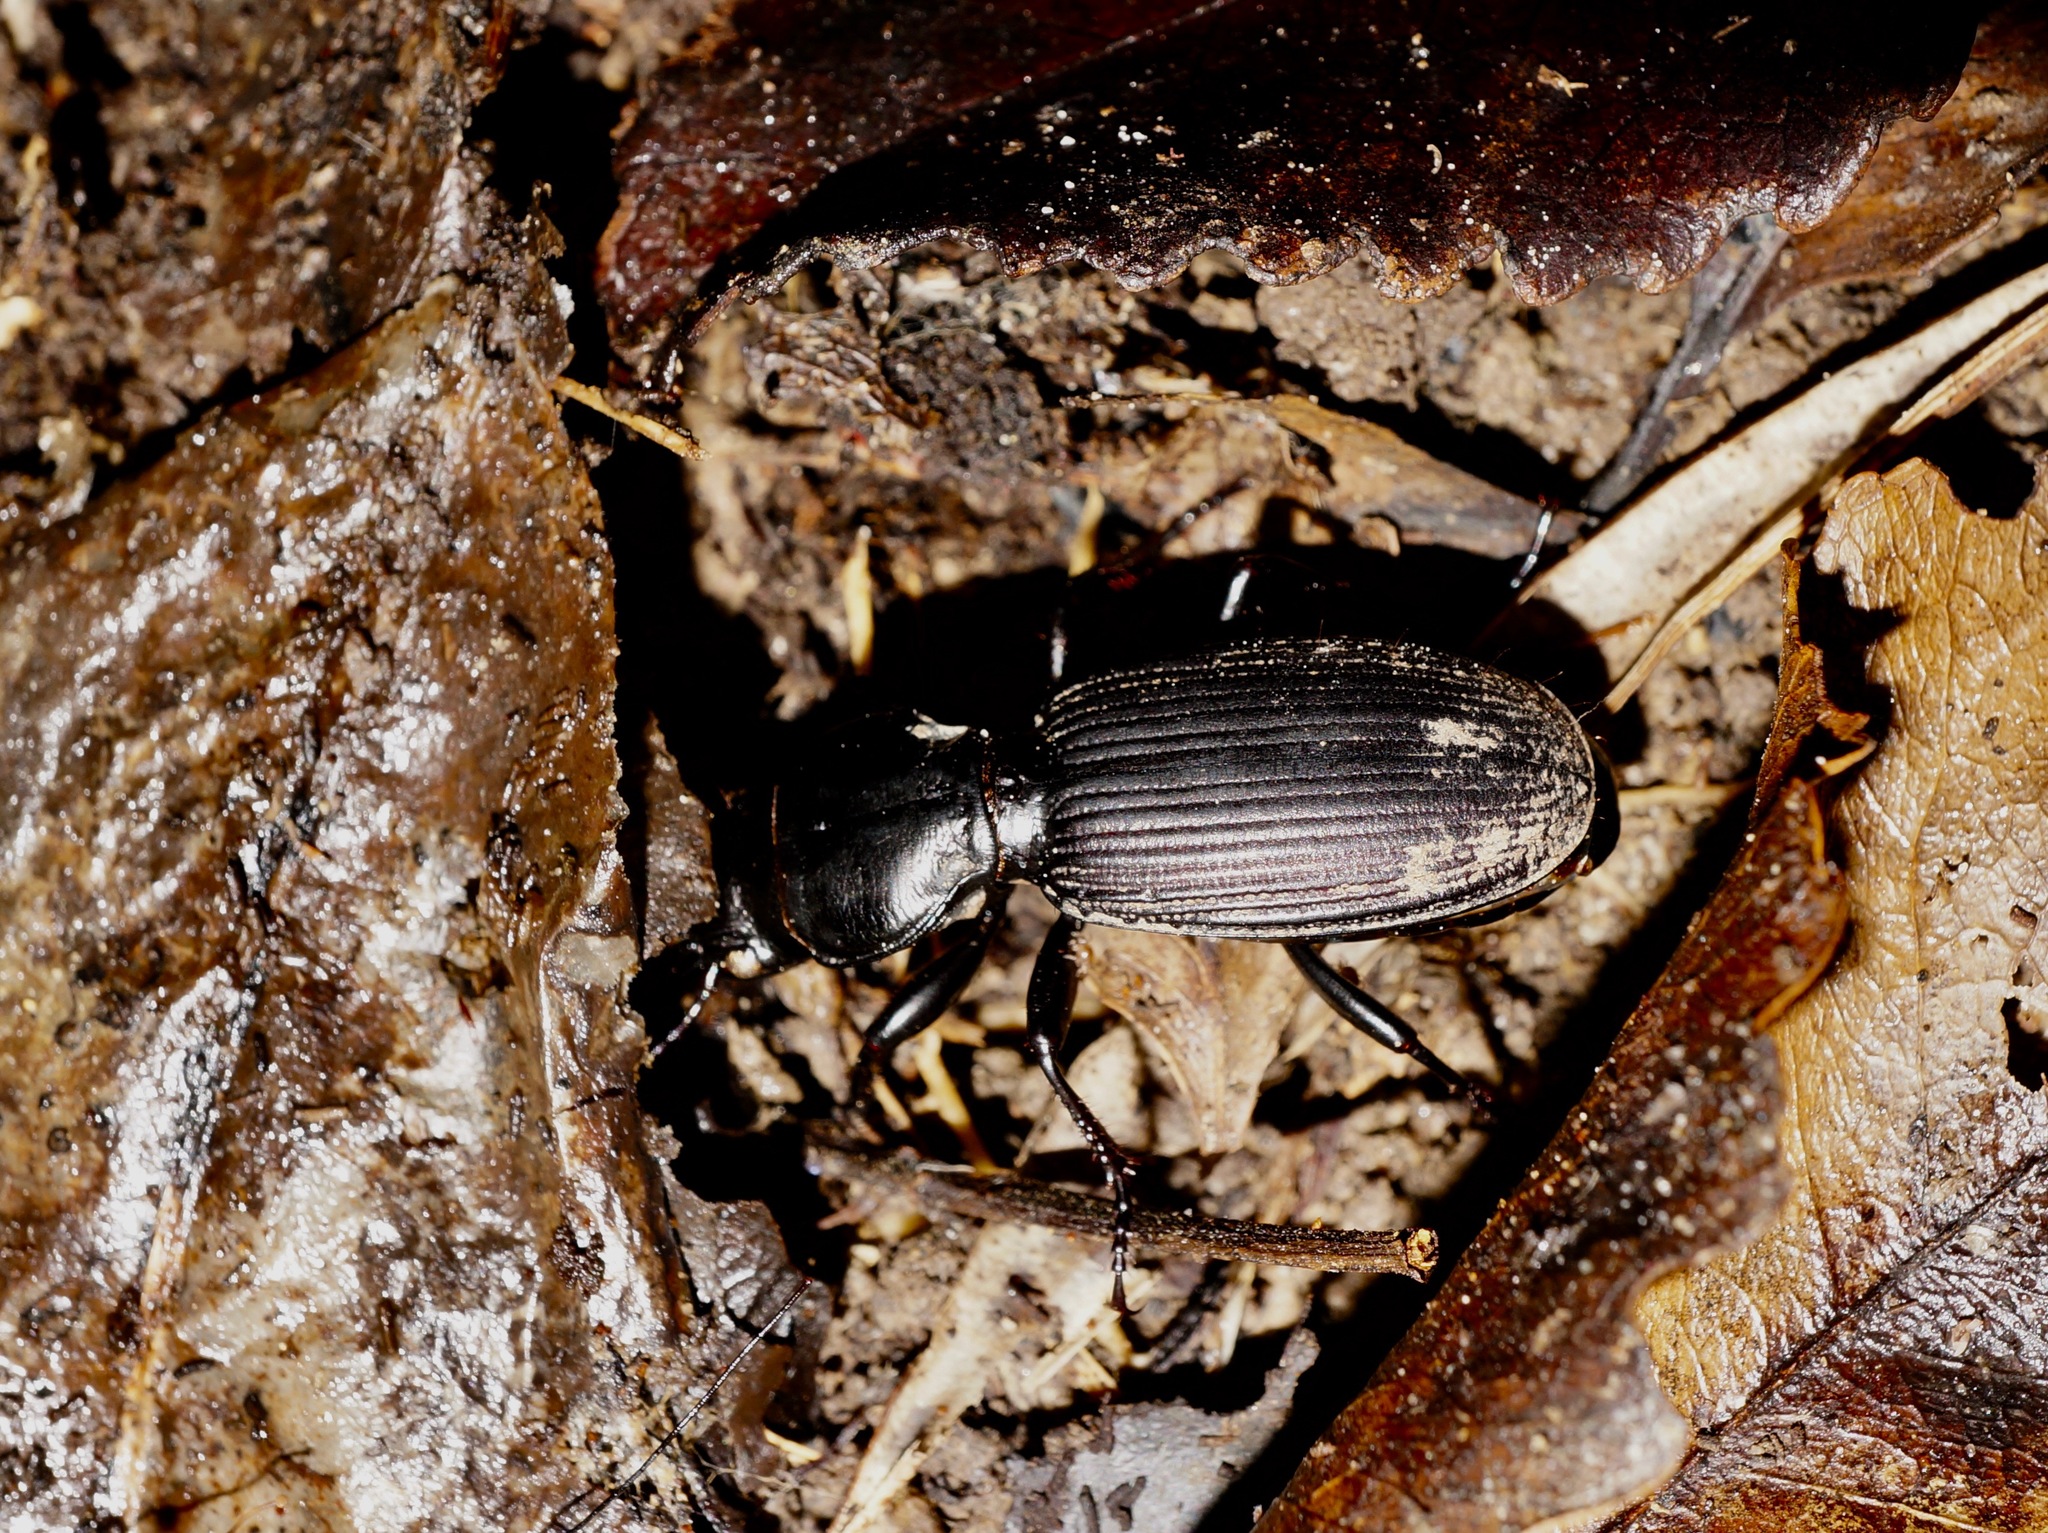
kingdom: Animalia
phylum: Arthropoda
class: Insecta
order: Coleoptera
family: Carabidae
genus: Mecodema
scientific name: Mecodema oconnori
